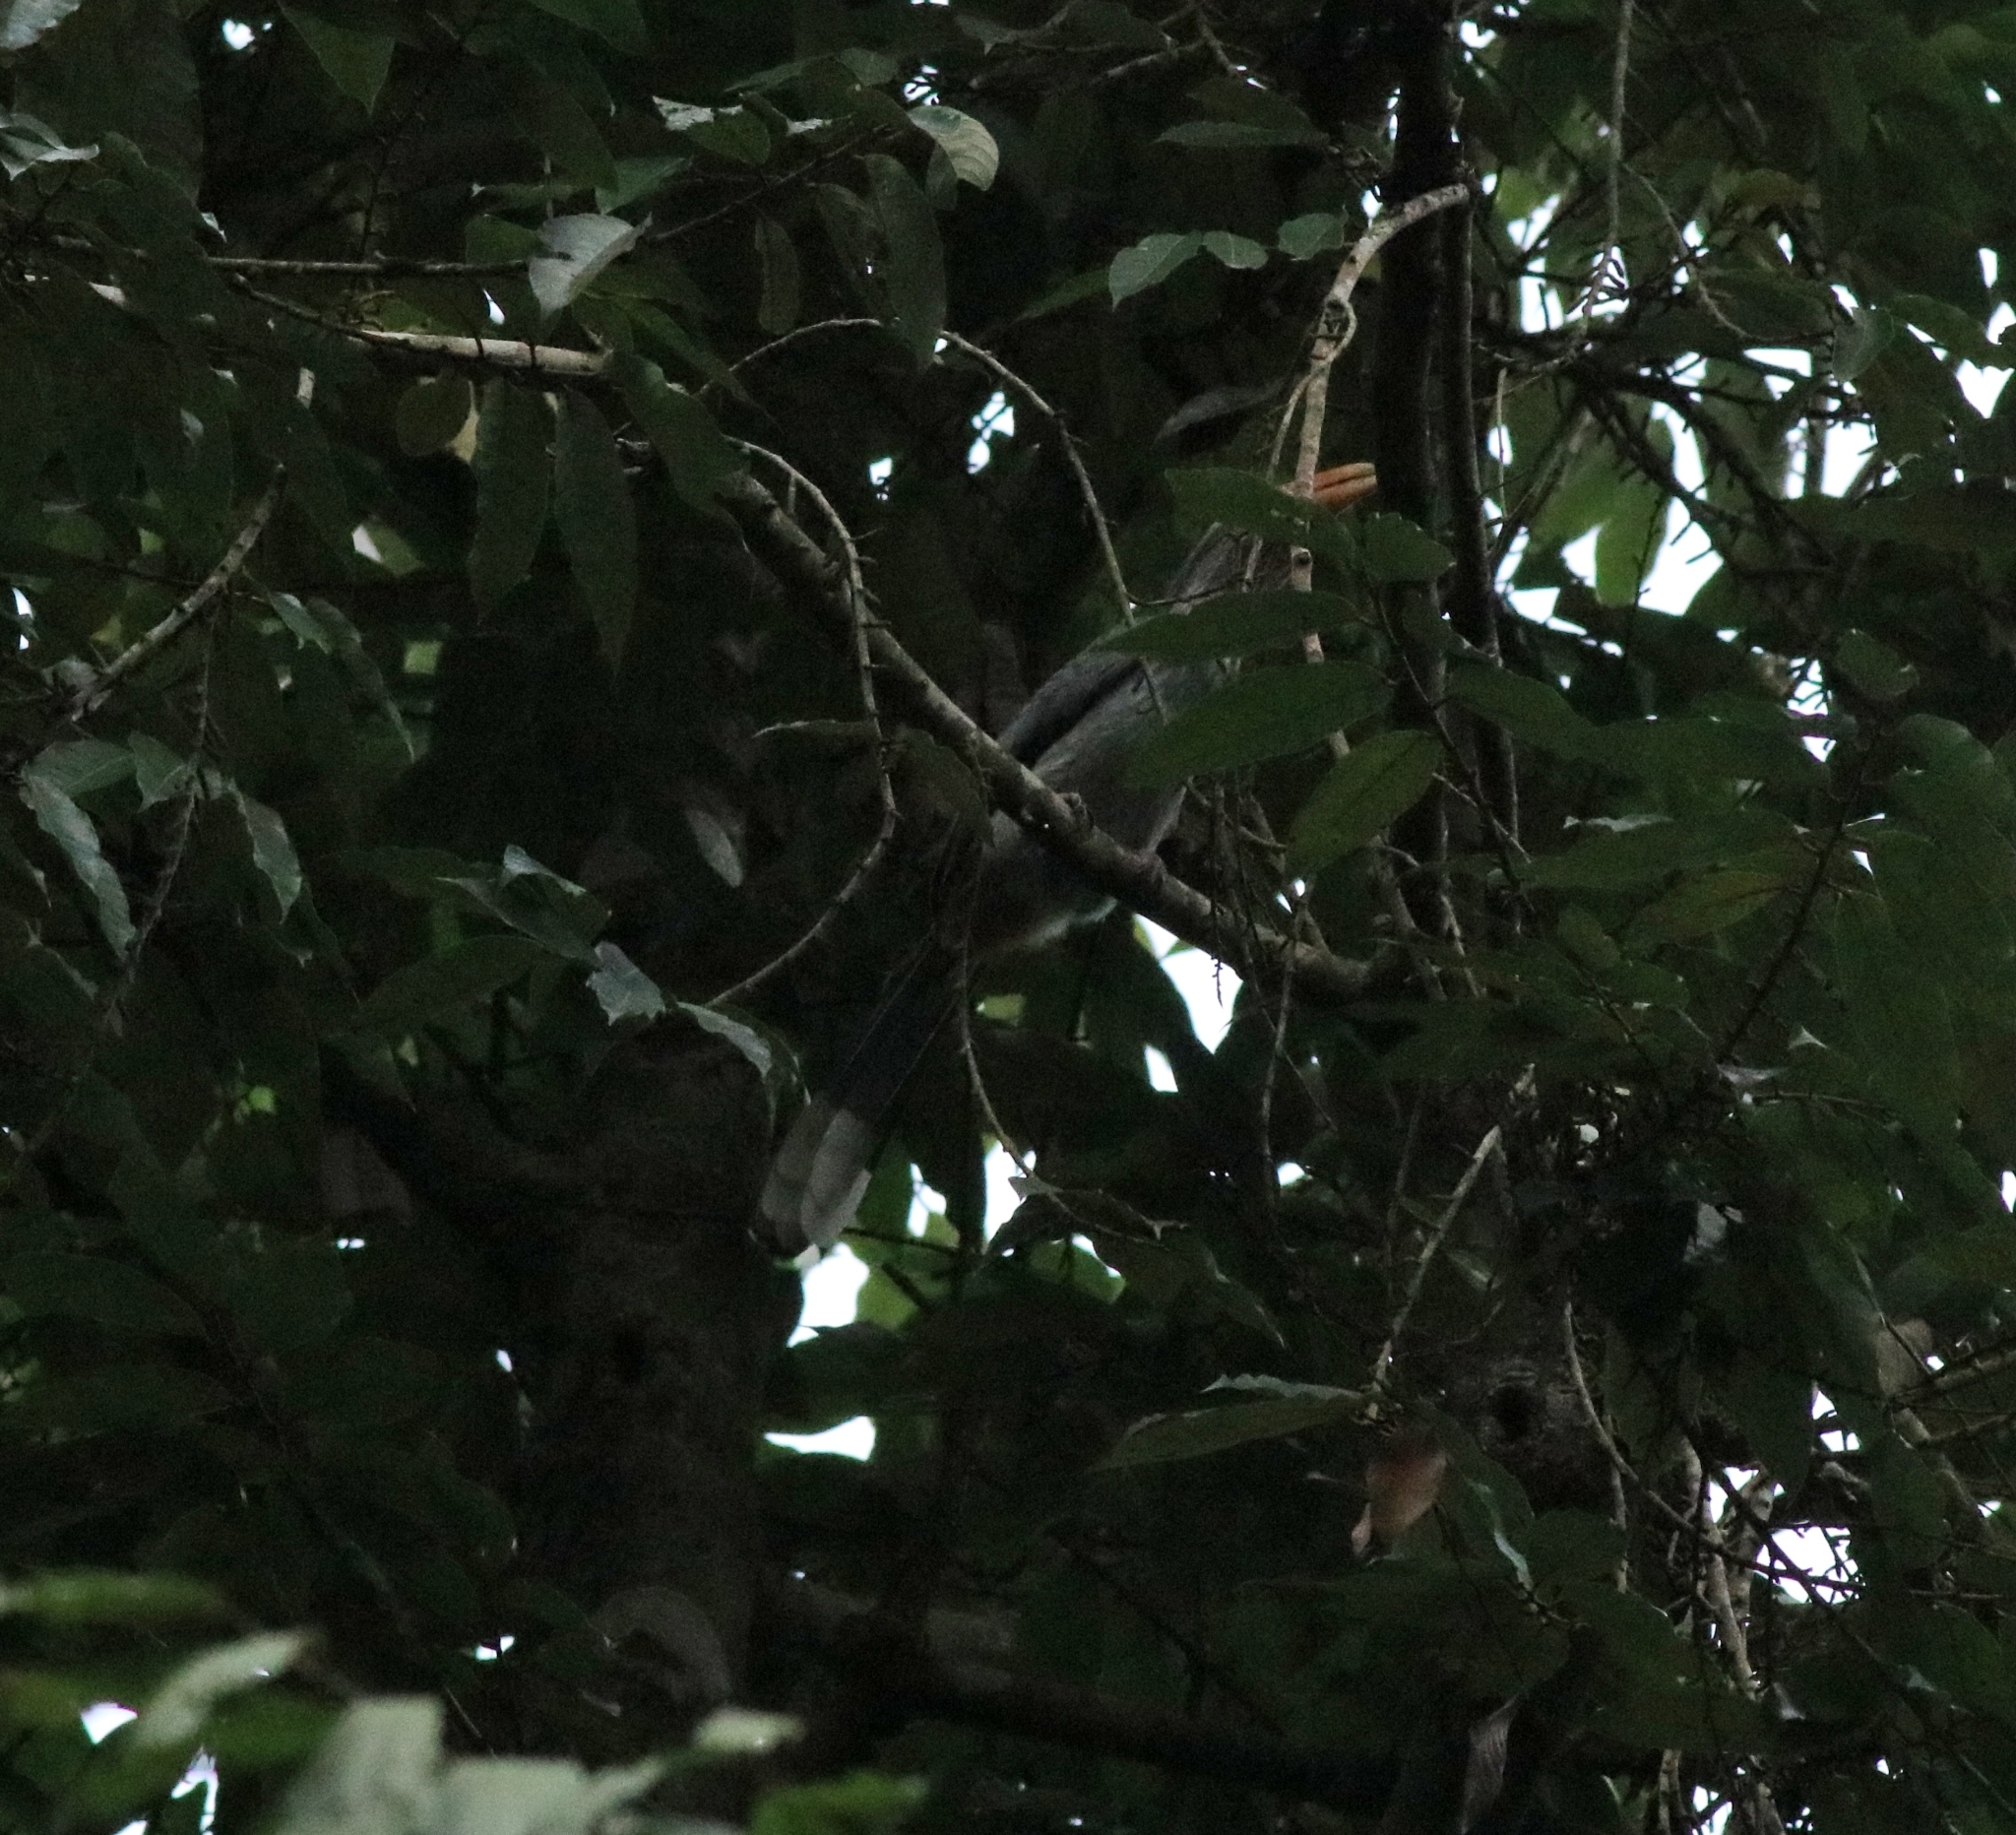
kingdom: Animalia
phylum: Chordata
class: Aves
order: Bucerotiformes
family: Bucerotidae
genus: Ocyceros
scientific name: Ocyceros griseus
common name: Malabar grey hornbill
